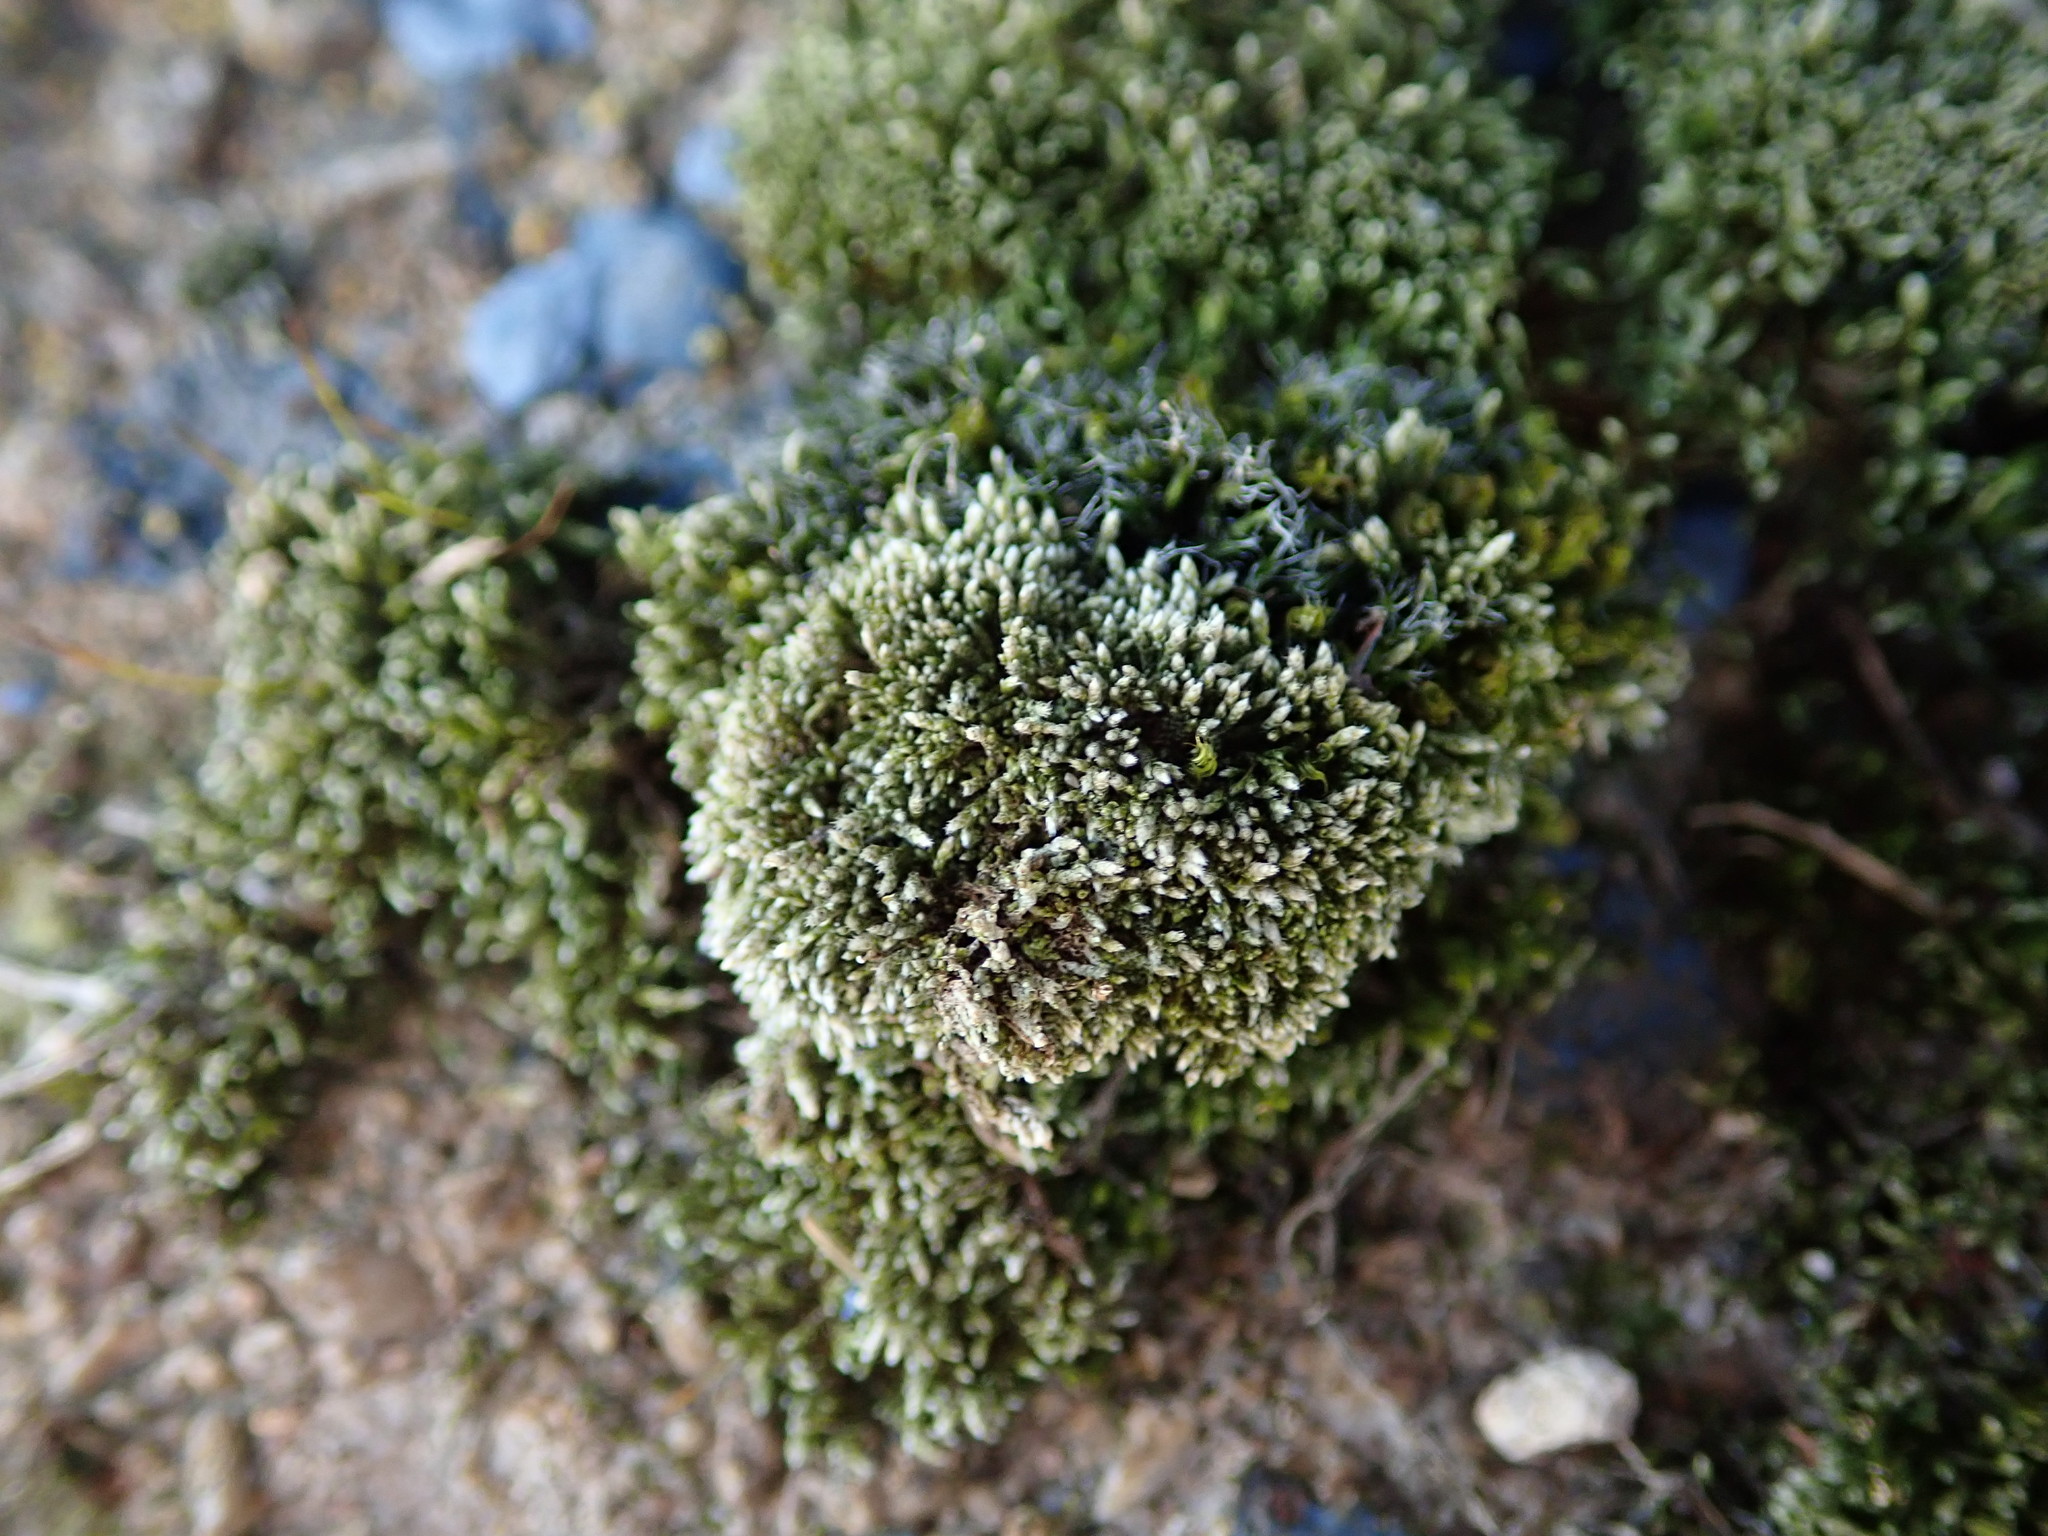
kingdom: Plantae
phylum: Bryophyta
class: Bryopsida
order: Bryales
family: Bryaceae
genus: Bryum
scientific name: Bryum argenteum
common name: Silver-moss
